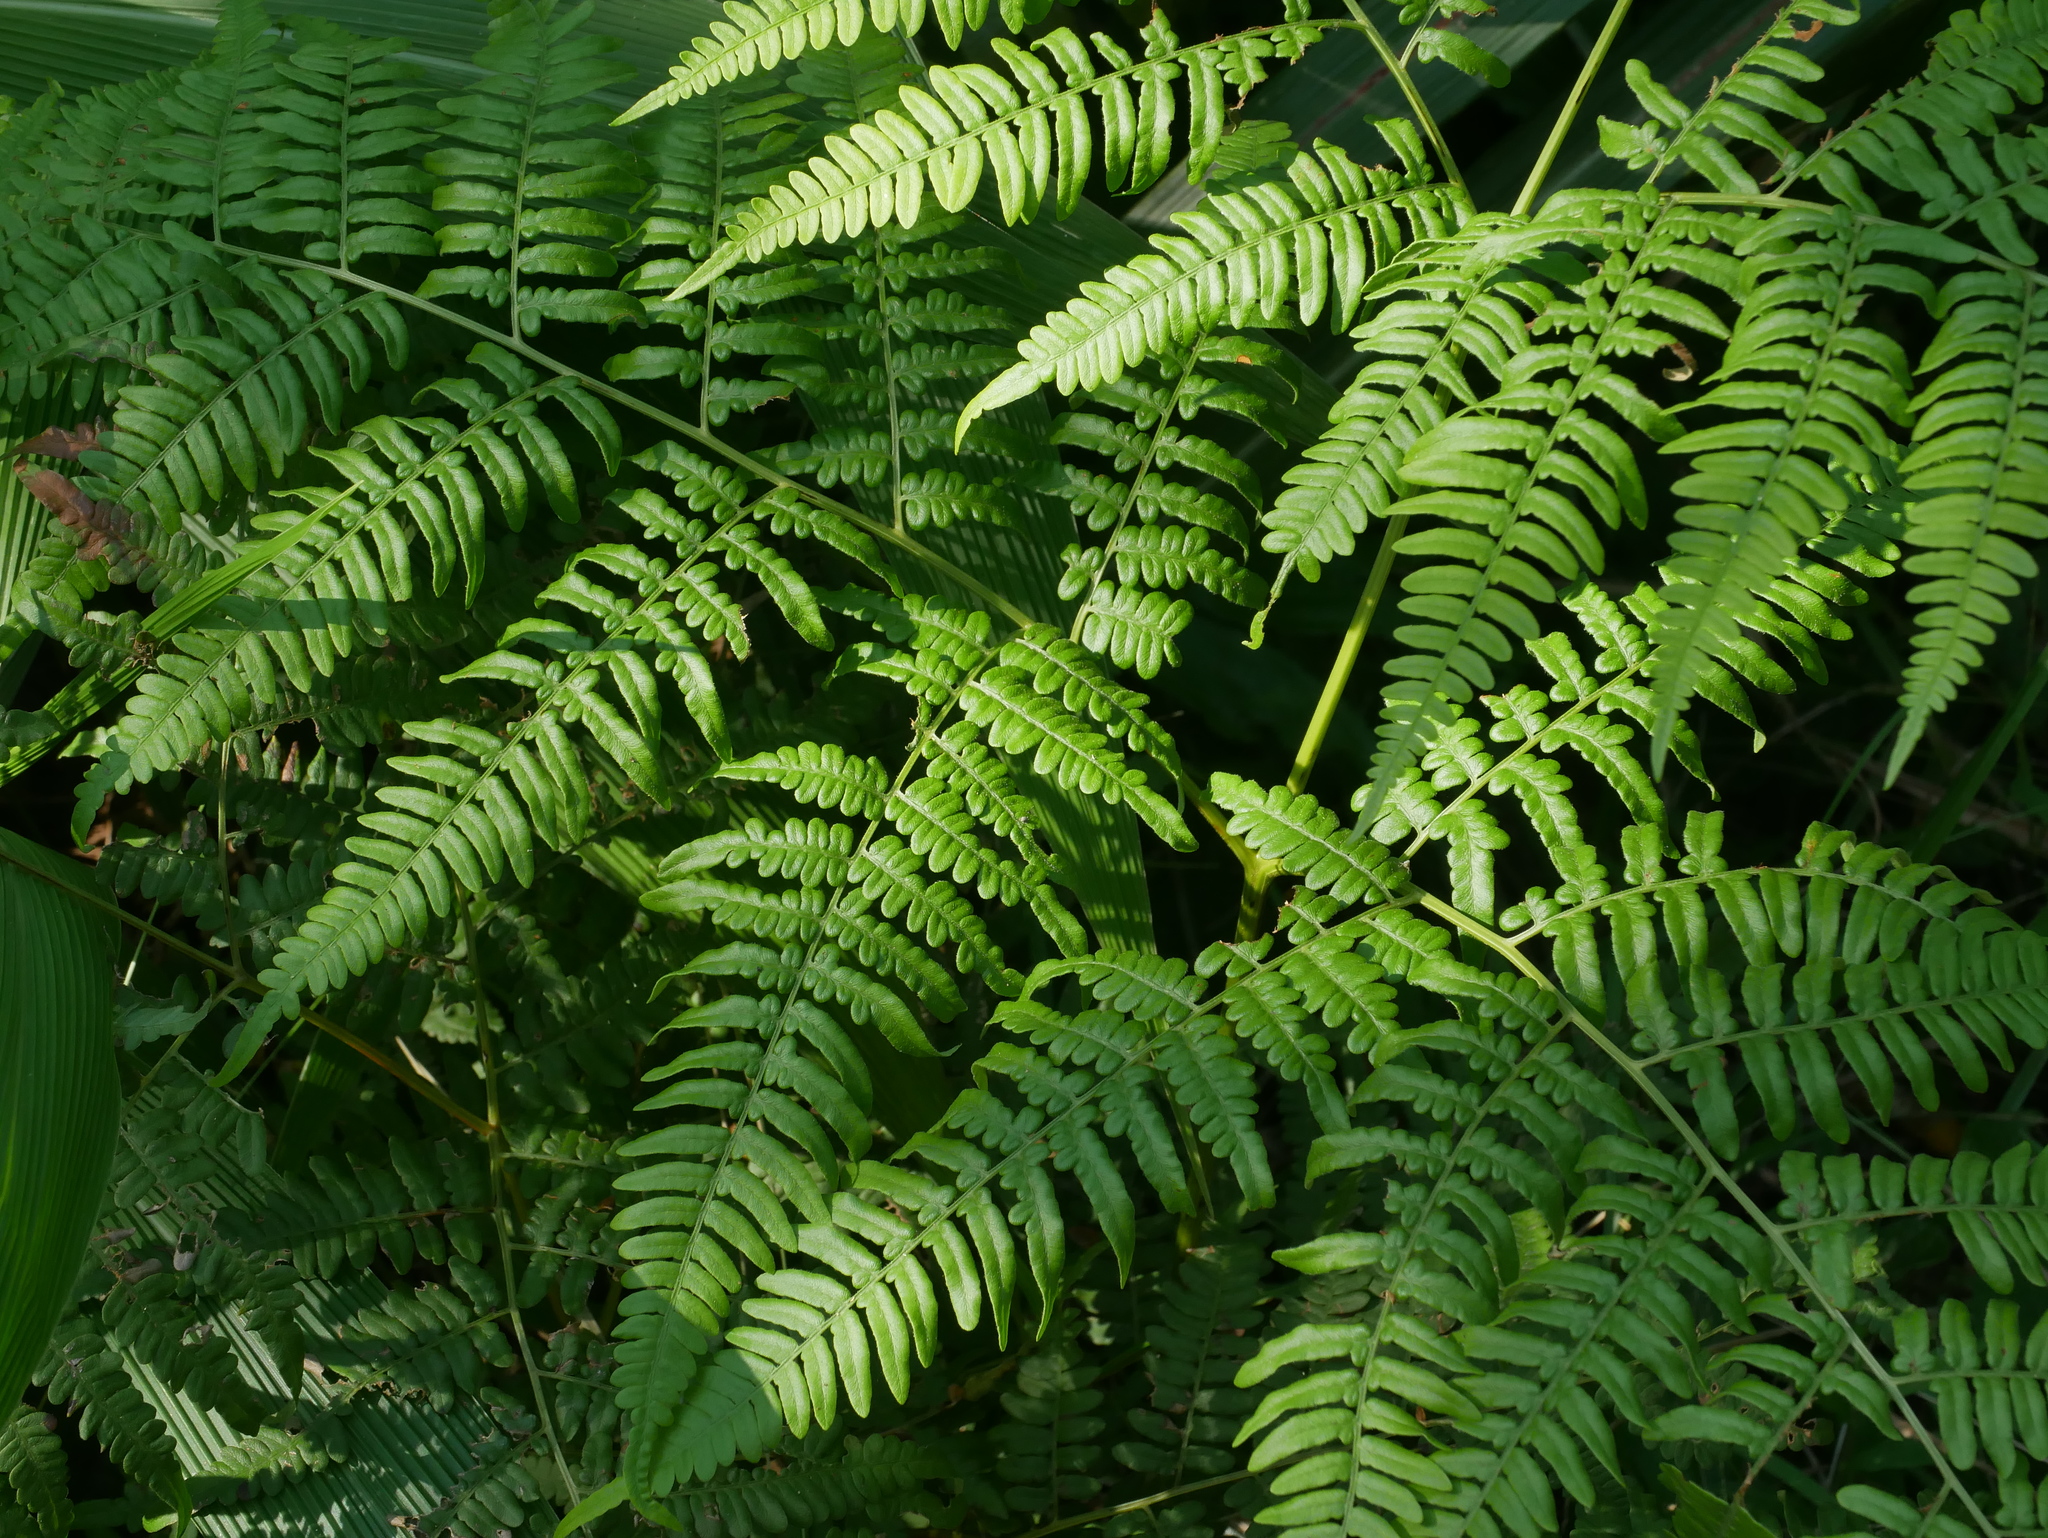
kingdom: Plantae
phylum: Tracheophyta
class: Polypodiopsida
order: Polypodiales
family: Dennstaedtiaceae
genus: Pteridium
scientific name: Pteridium aquilinum
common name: Bracken
